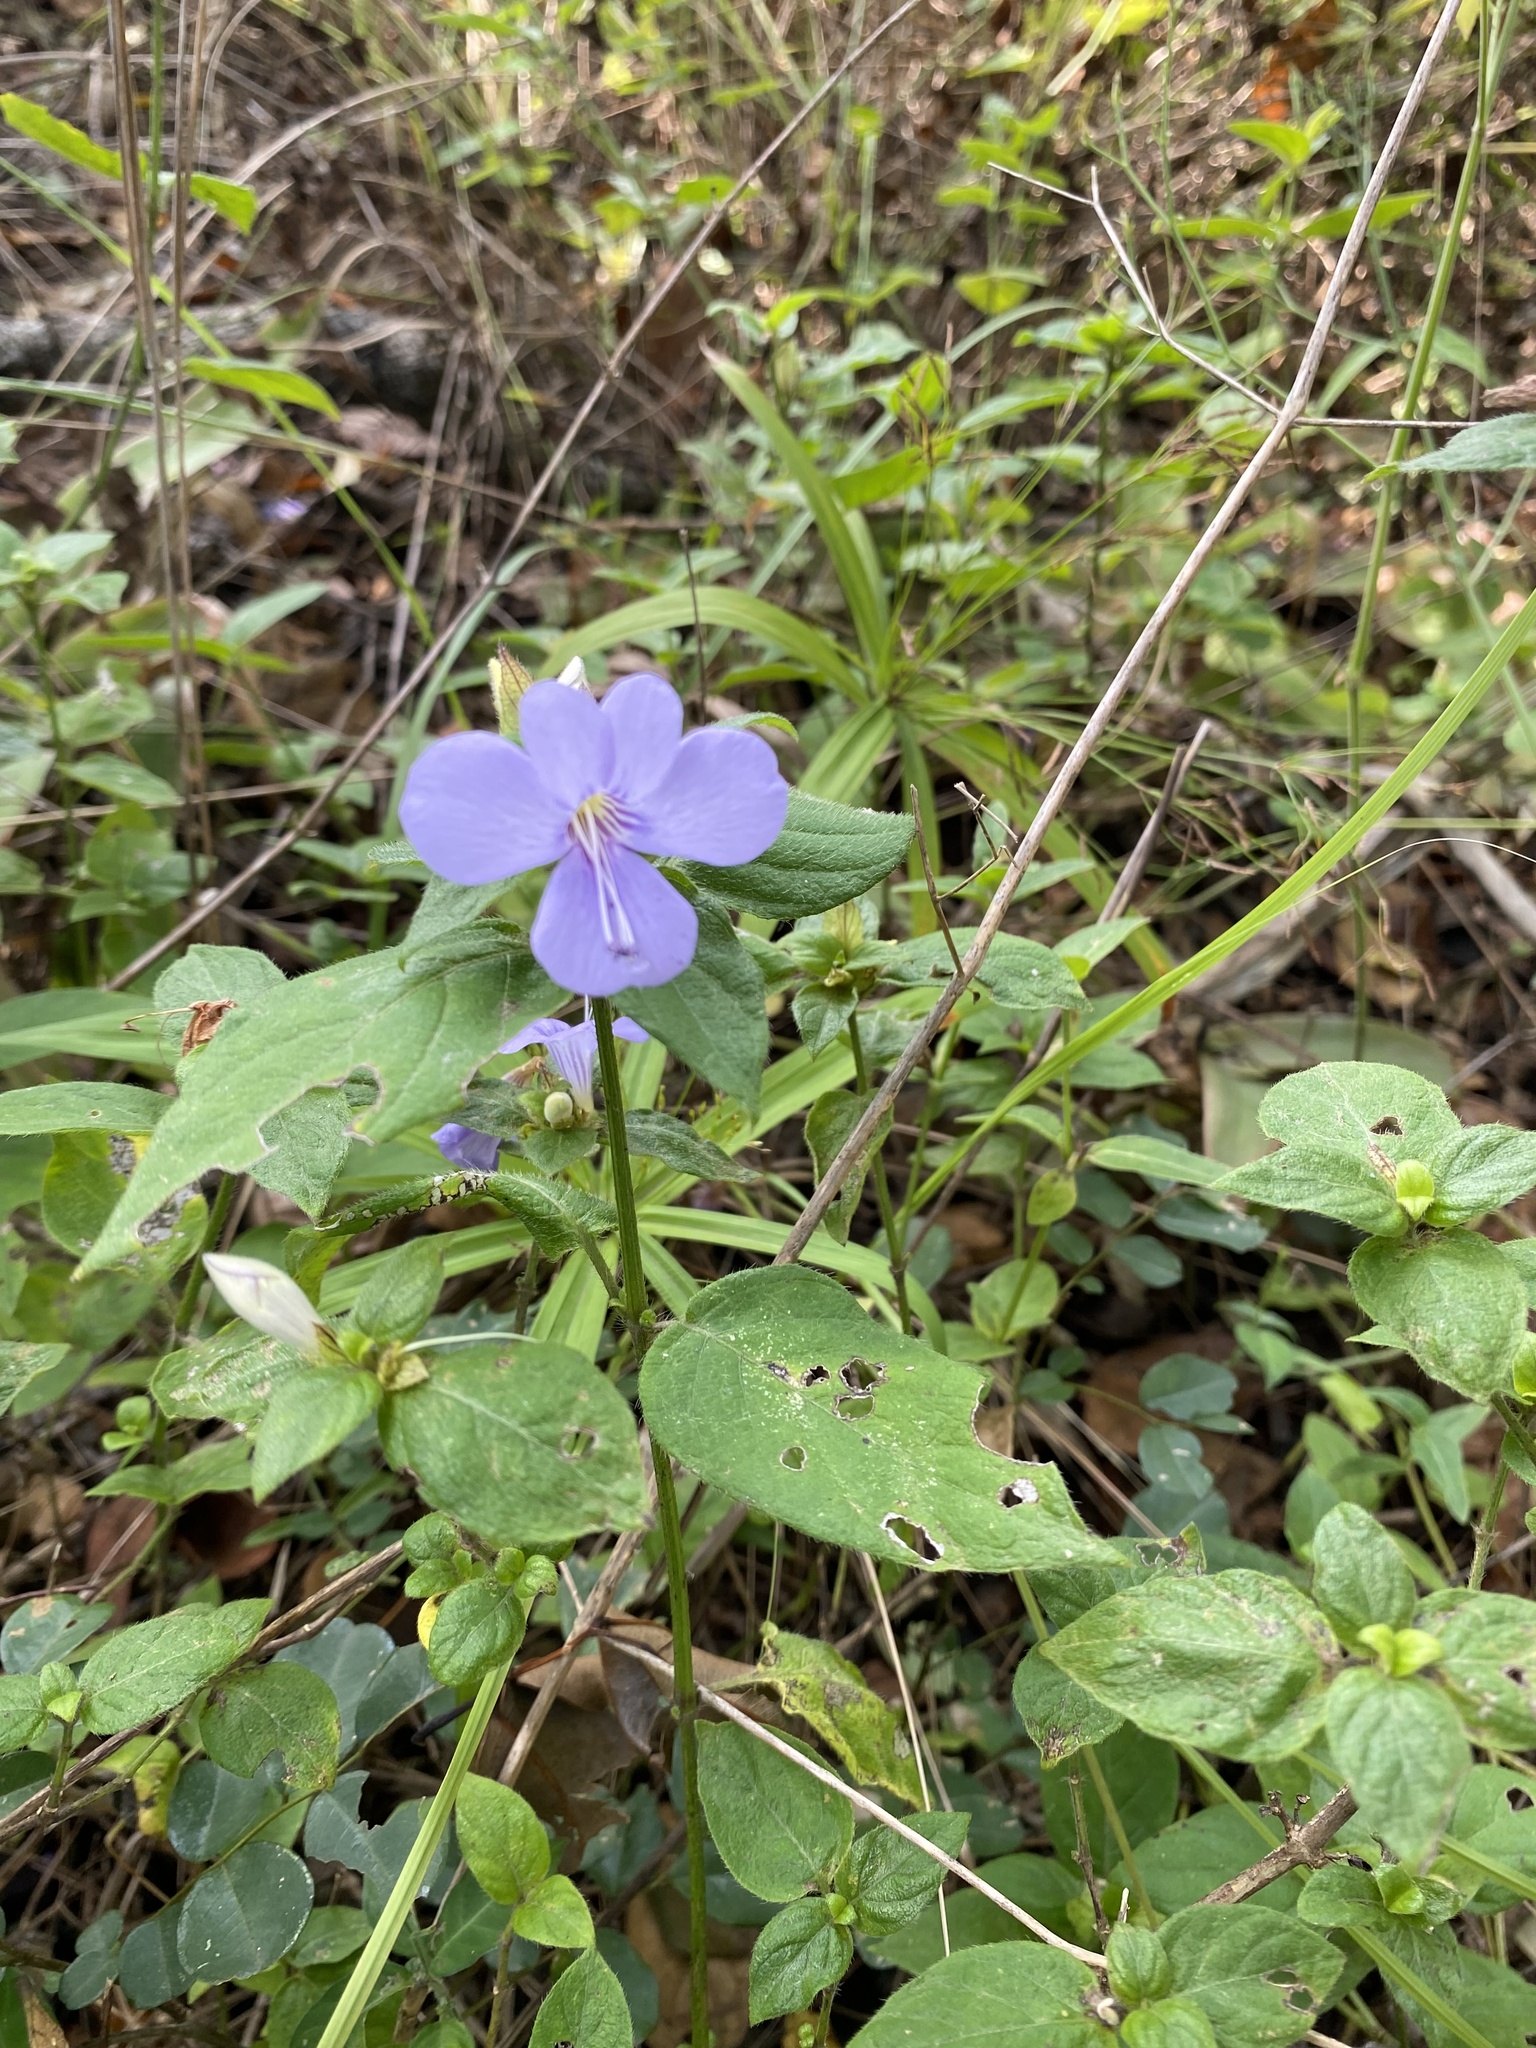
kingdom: Plantae
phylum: Tracheophyta
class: Magnoliopsida
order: Lamiales
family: Acanthaceae
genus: Barleria
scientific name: Barleria gueinzii
